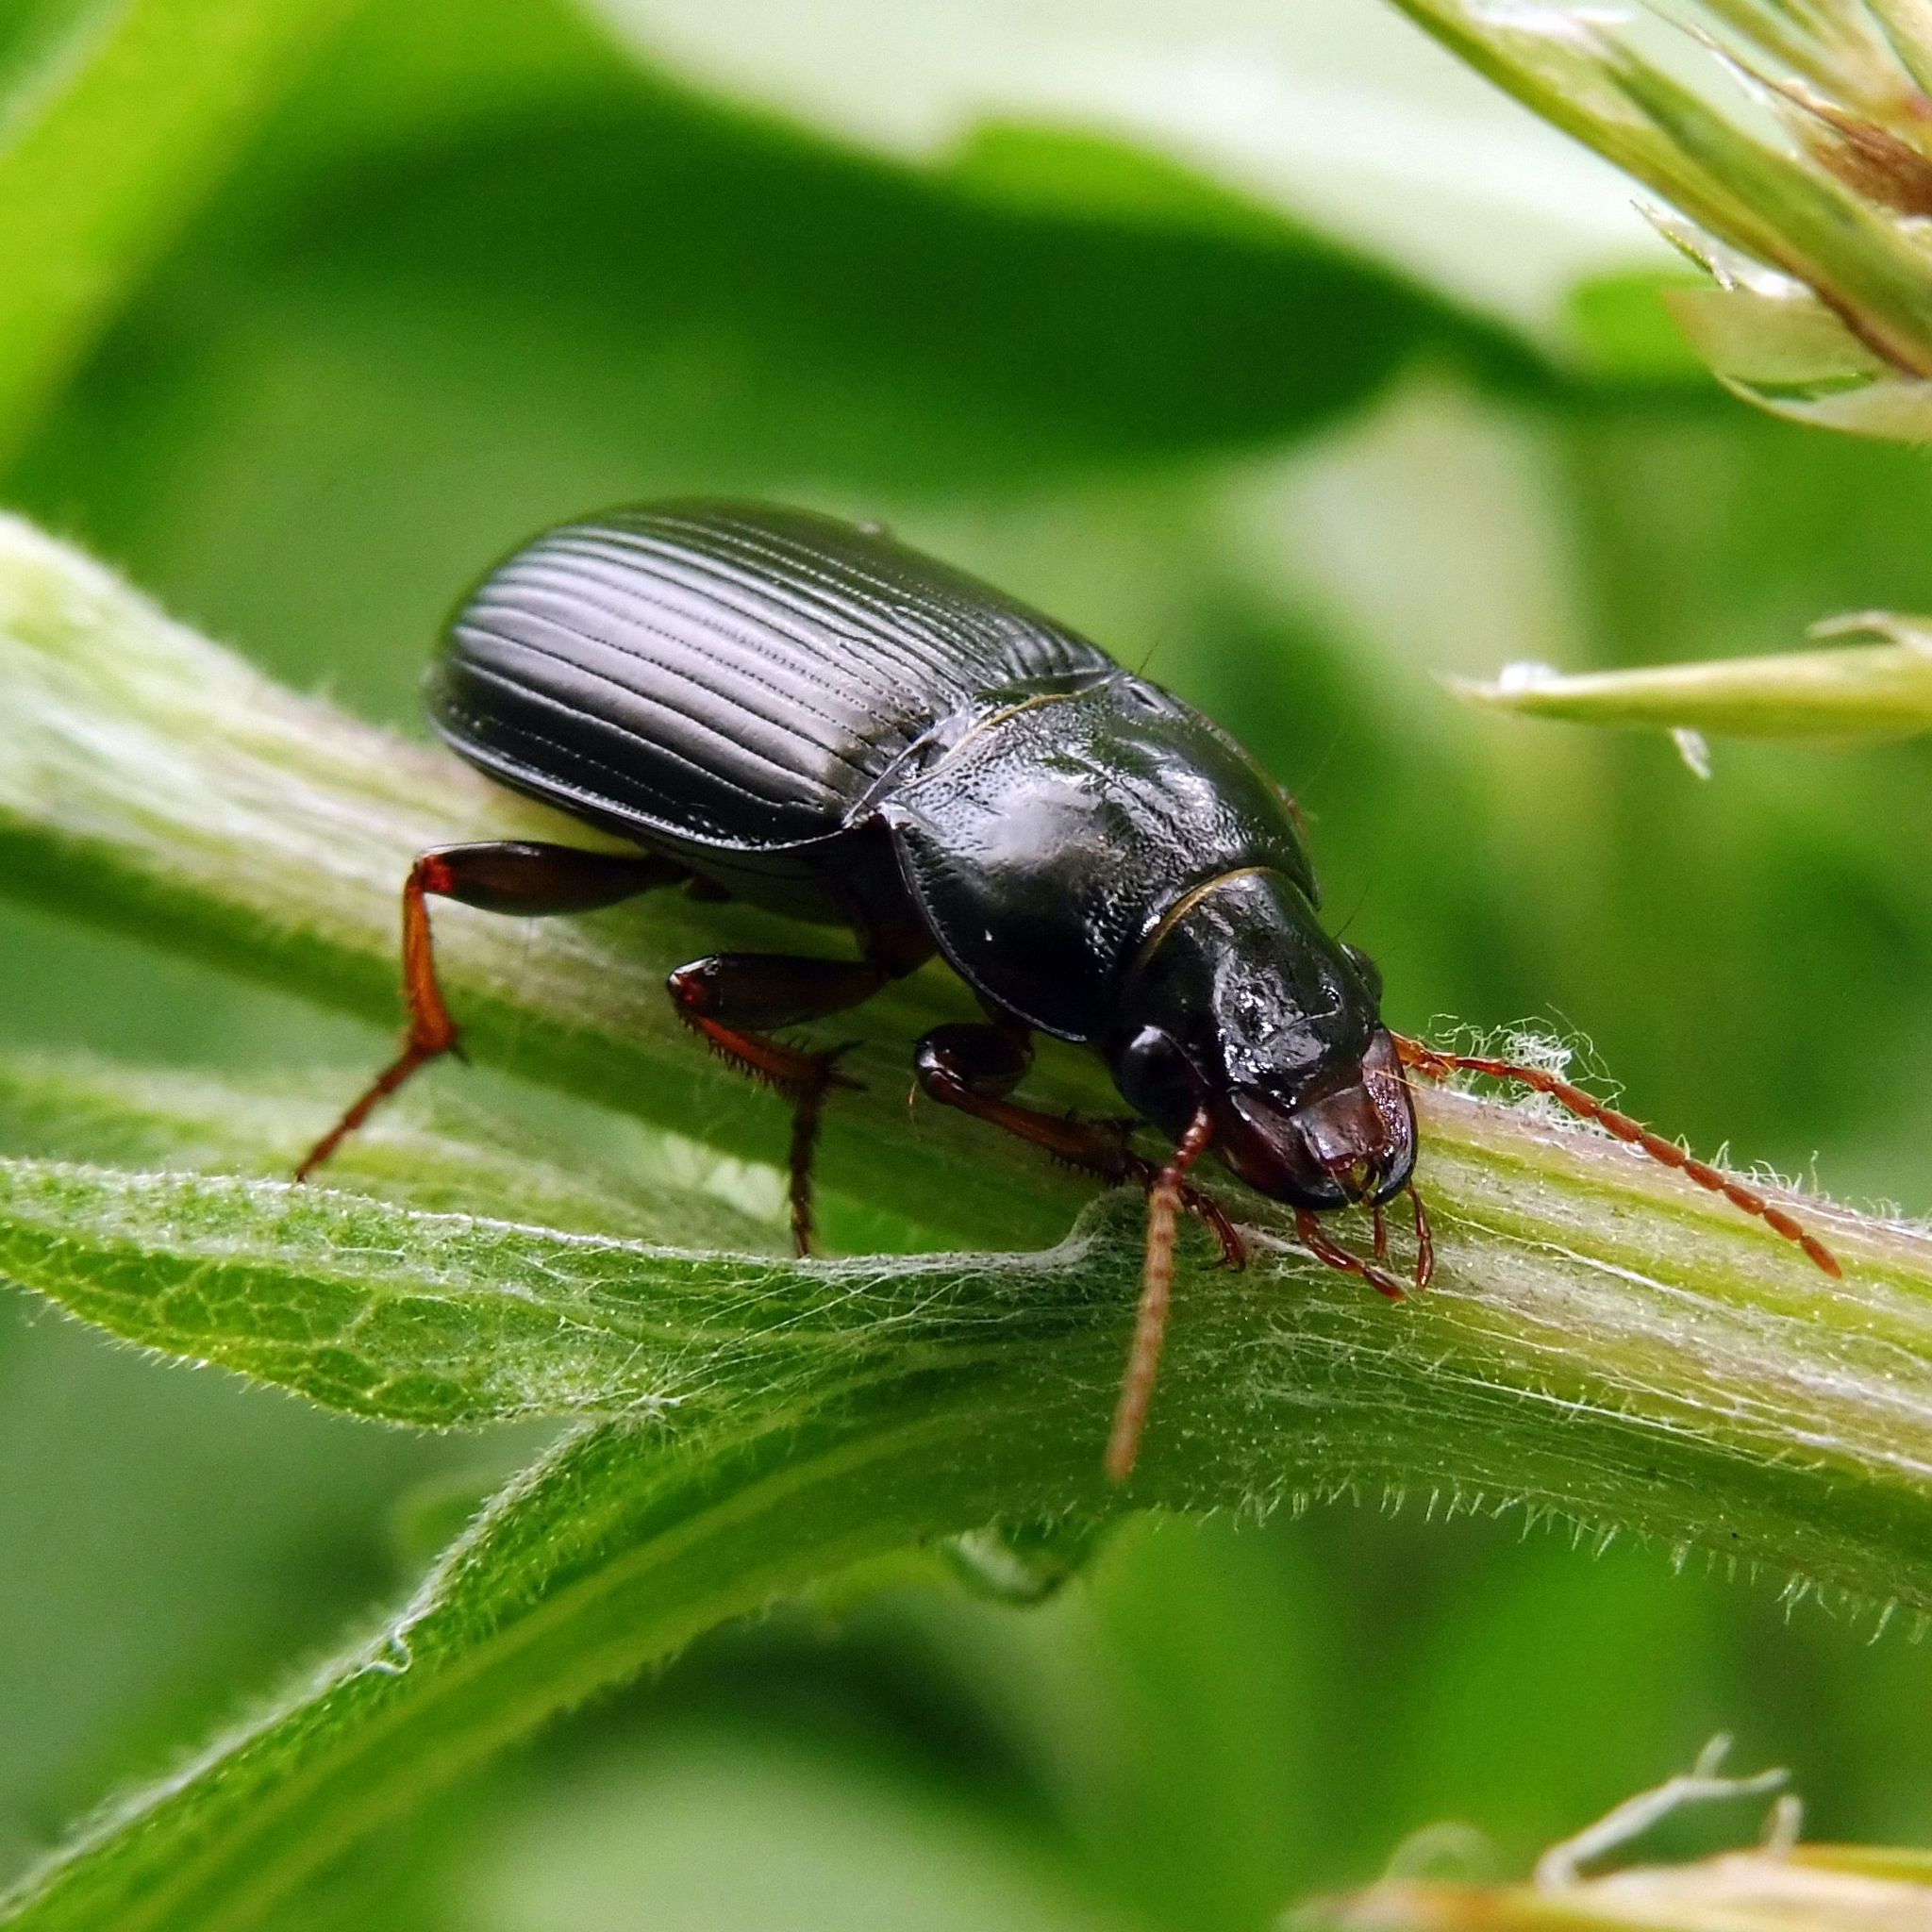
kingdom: Animalia
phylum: Arthropoda
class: Insecta
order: Coleoptera
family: Carabidae
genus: Amara
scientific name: Amara aulica
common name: Princely harp ground beetle
